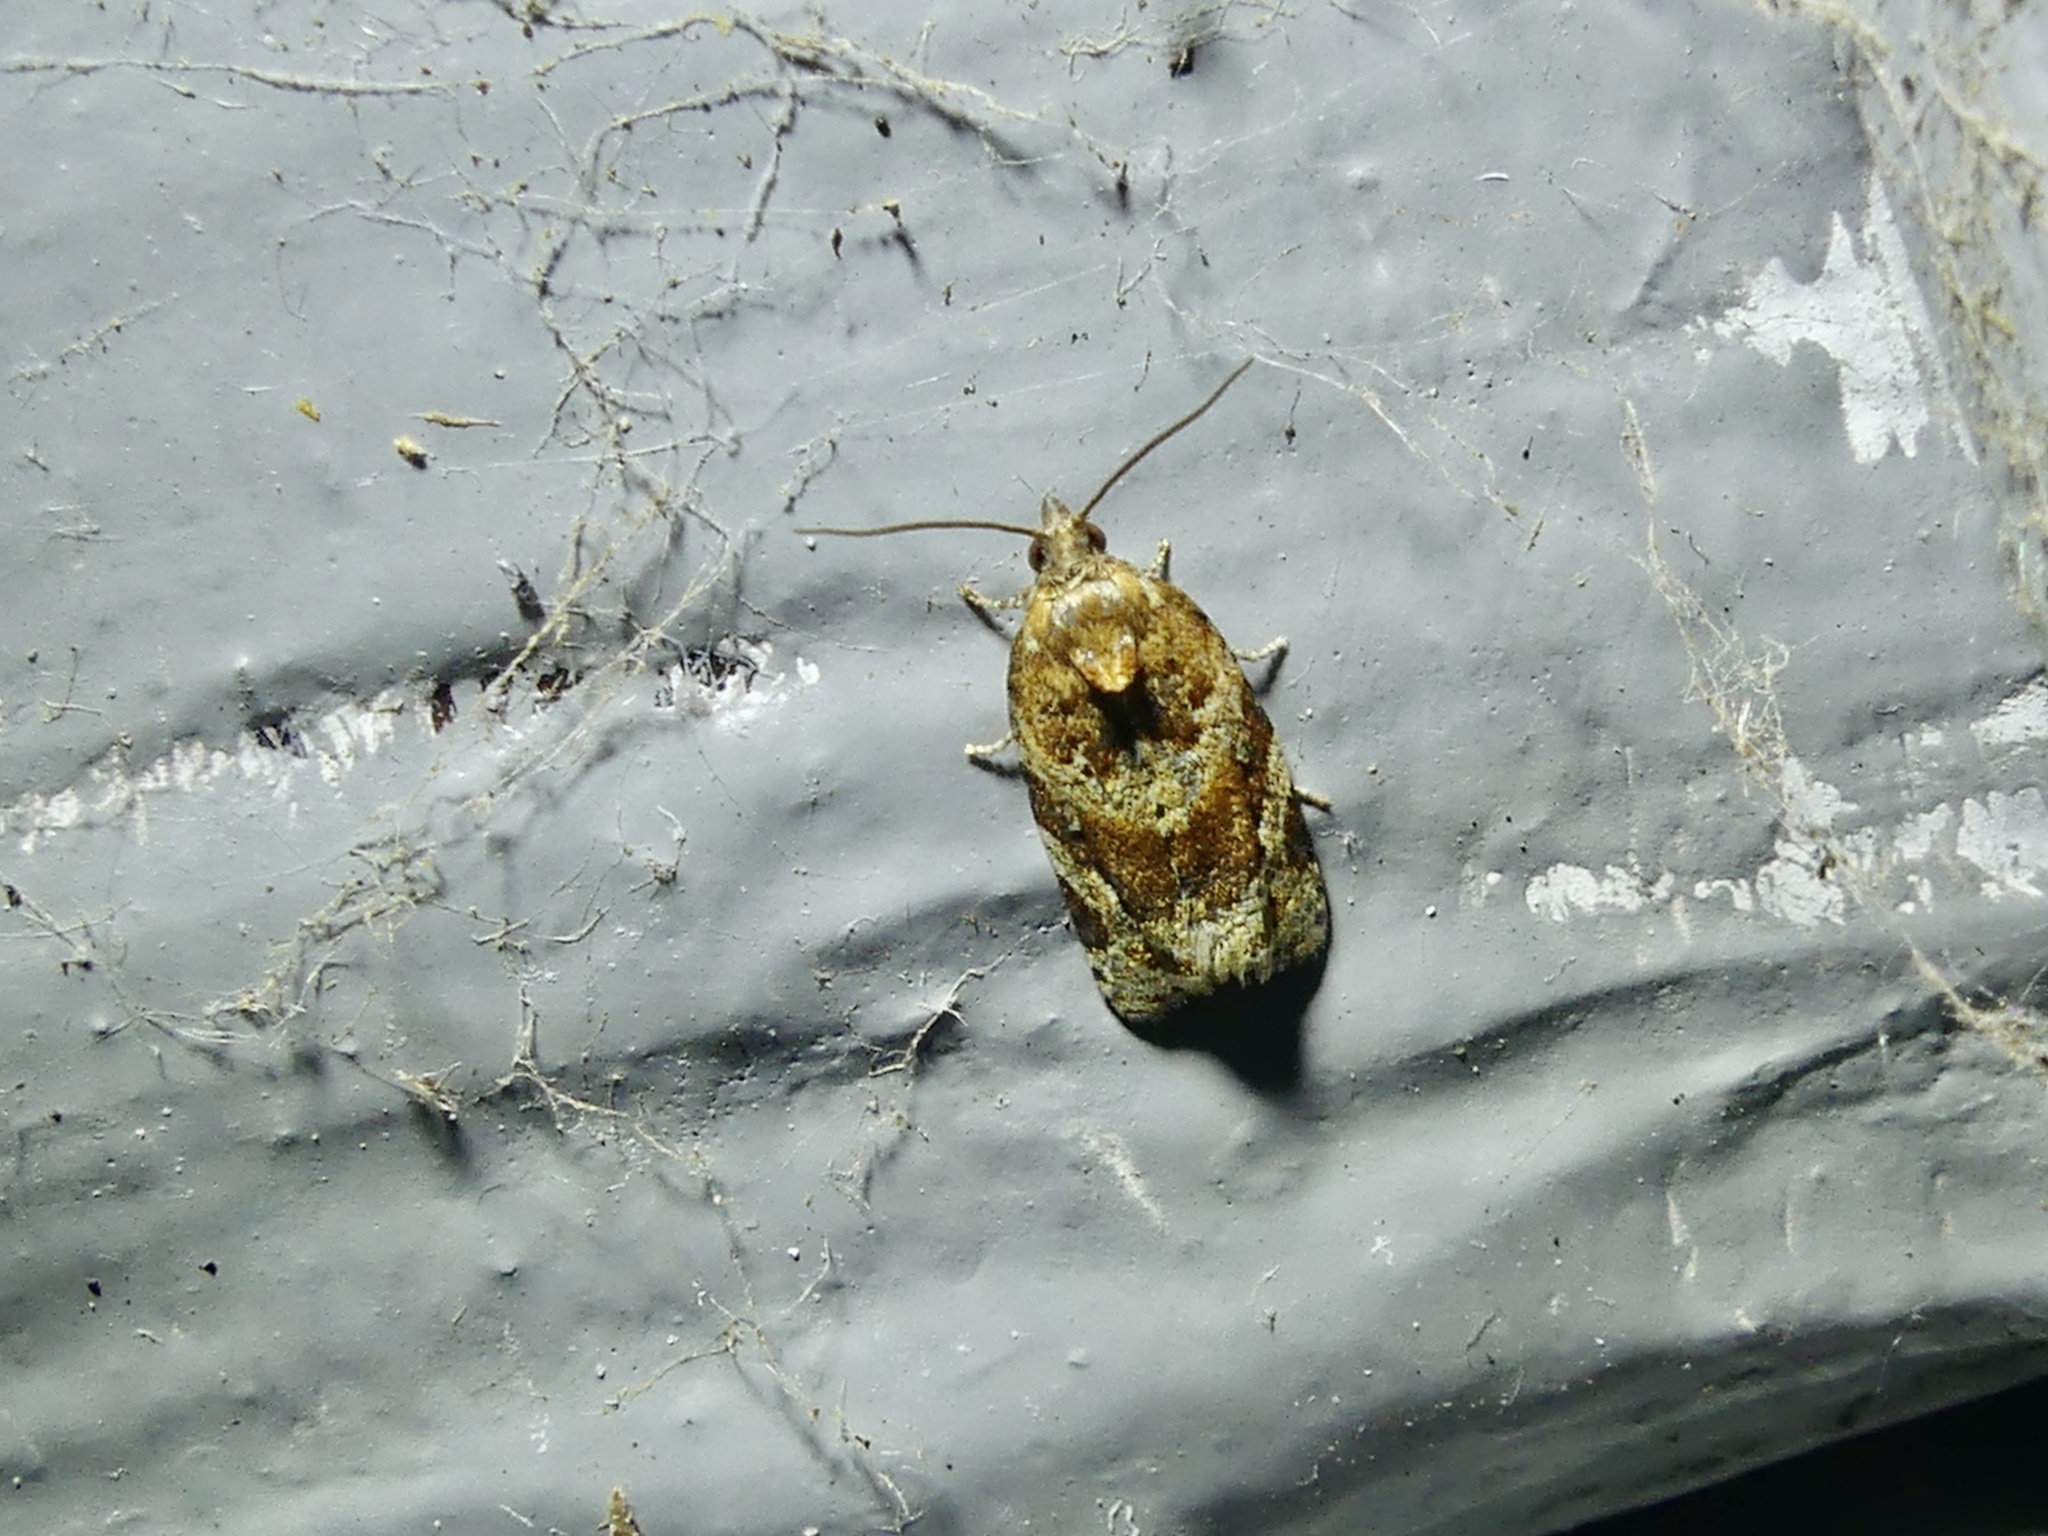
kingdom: Animalia
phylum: Arthropoda
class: Insecta
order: Lepidoptera
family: Tortricidae
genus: Argyrotaenia
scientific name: Argyrotaenia ljungiana
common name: Heather twist
